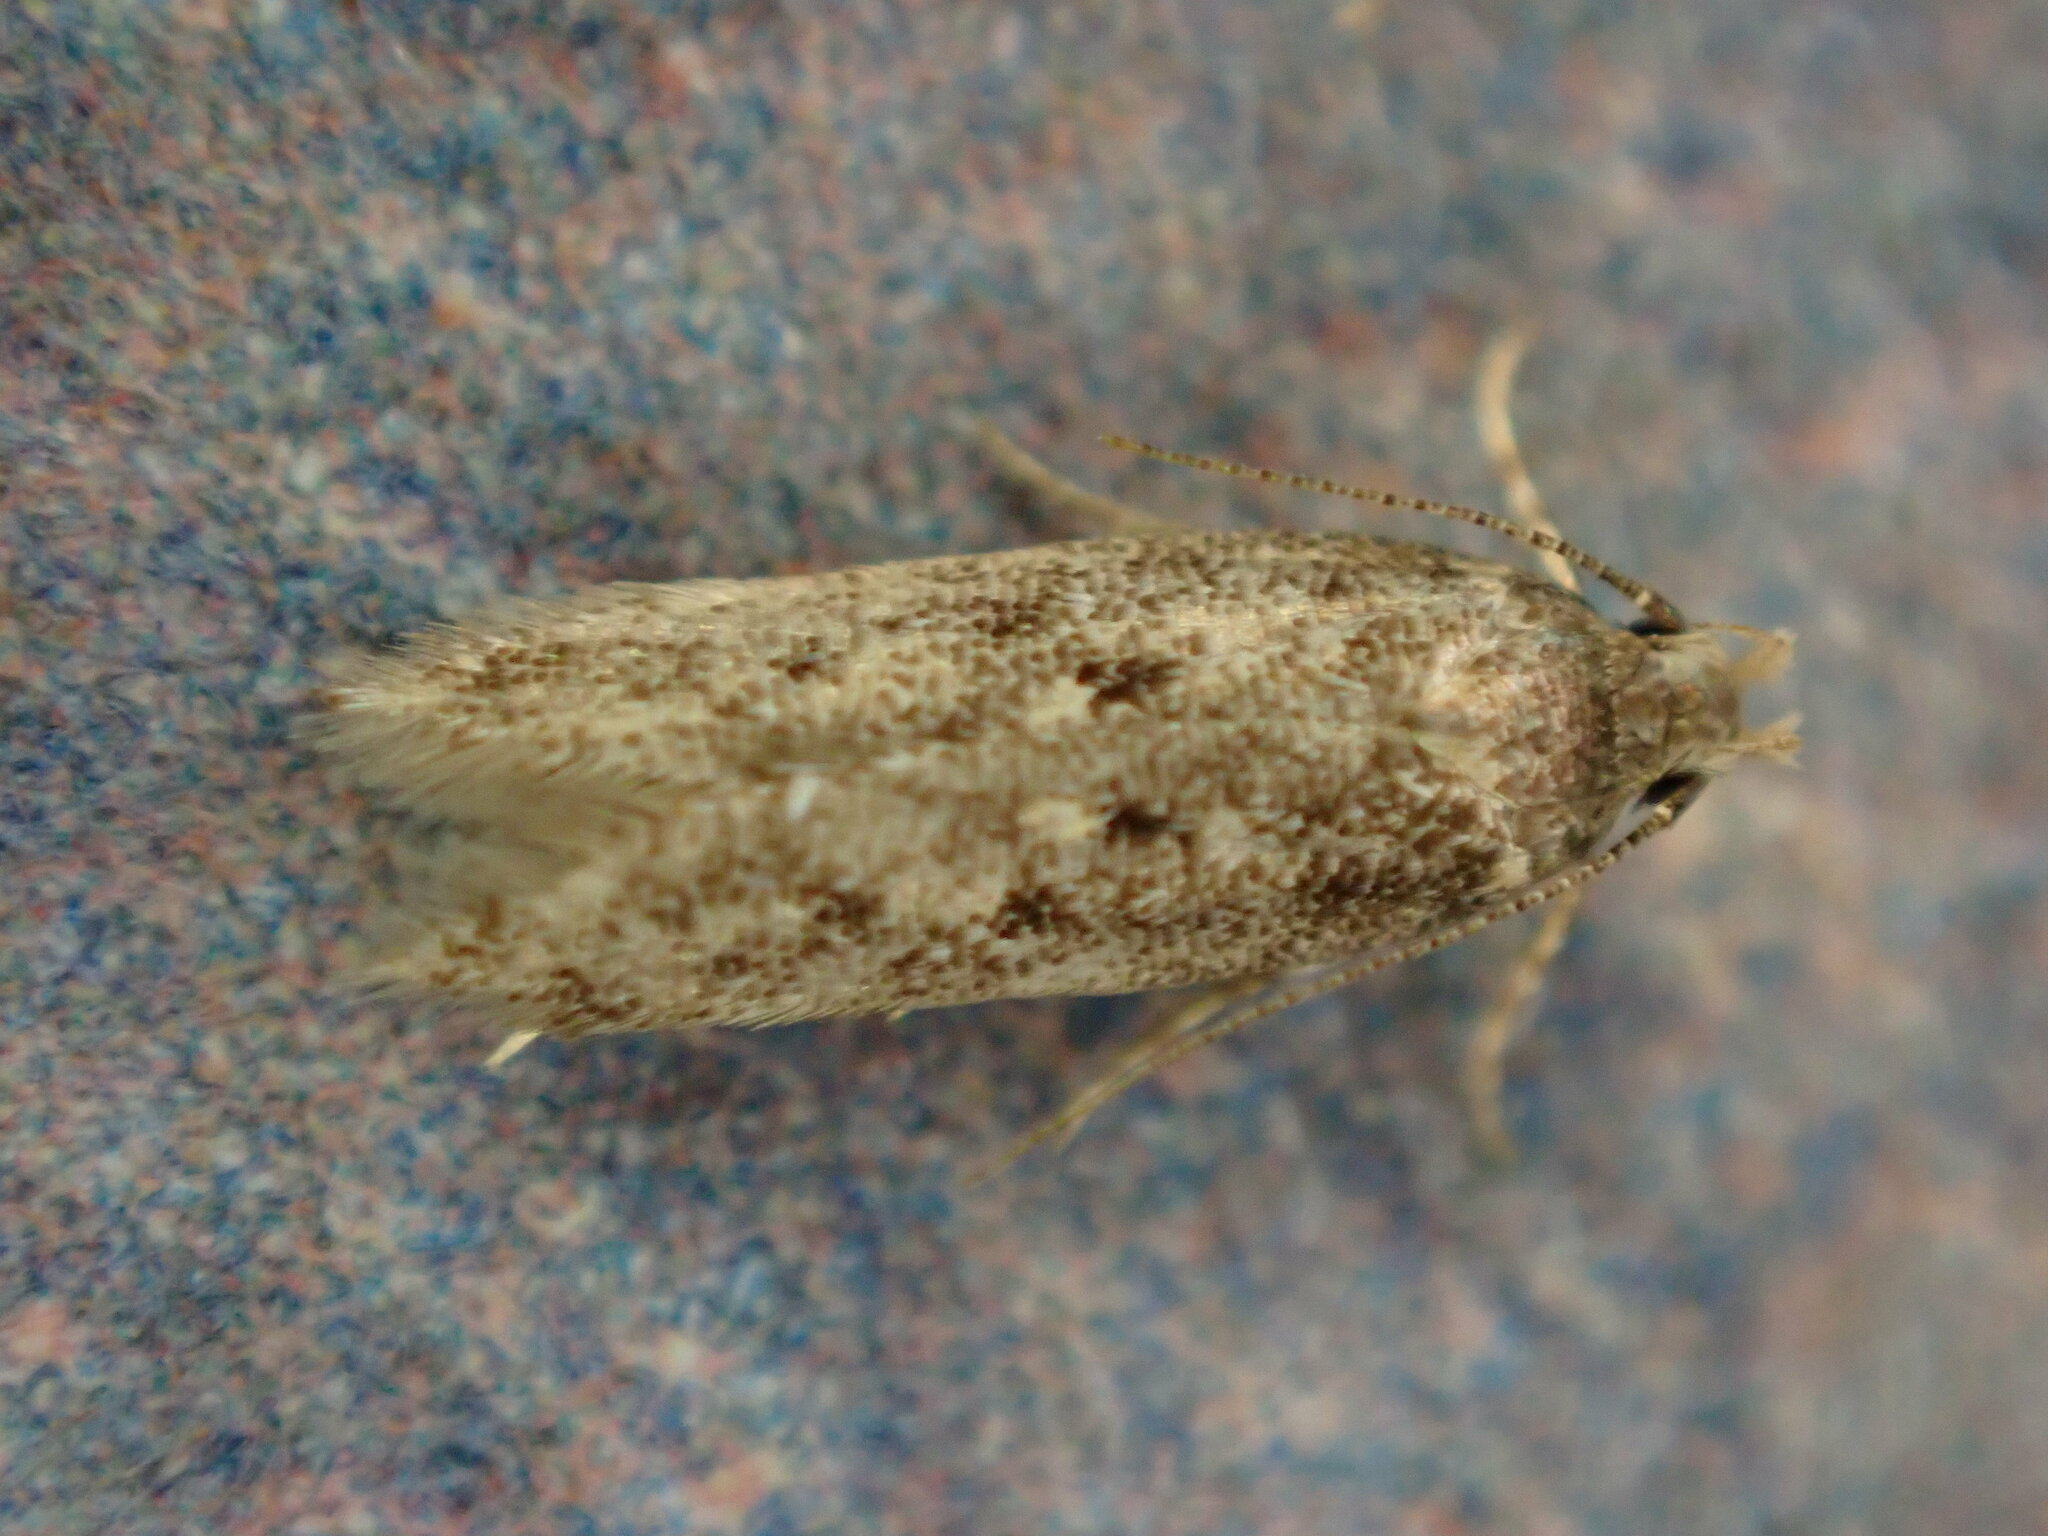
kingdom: Animalia
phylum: Arthropoda
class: Insecta
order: Lepidoptera
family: Gelechiidae
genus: Bryotropha
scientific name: Bryotropha affinis
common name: Dark groundling
